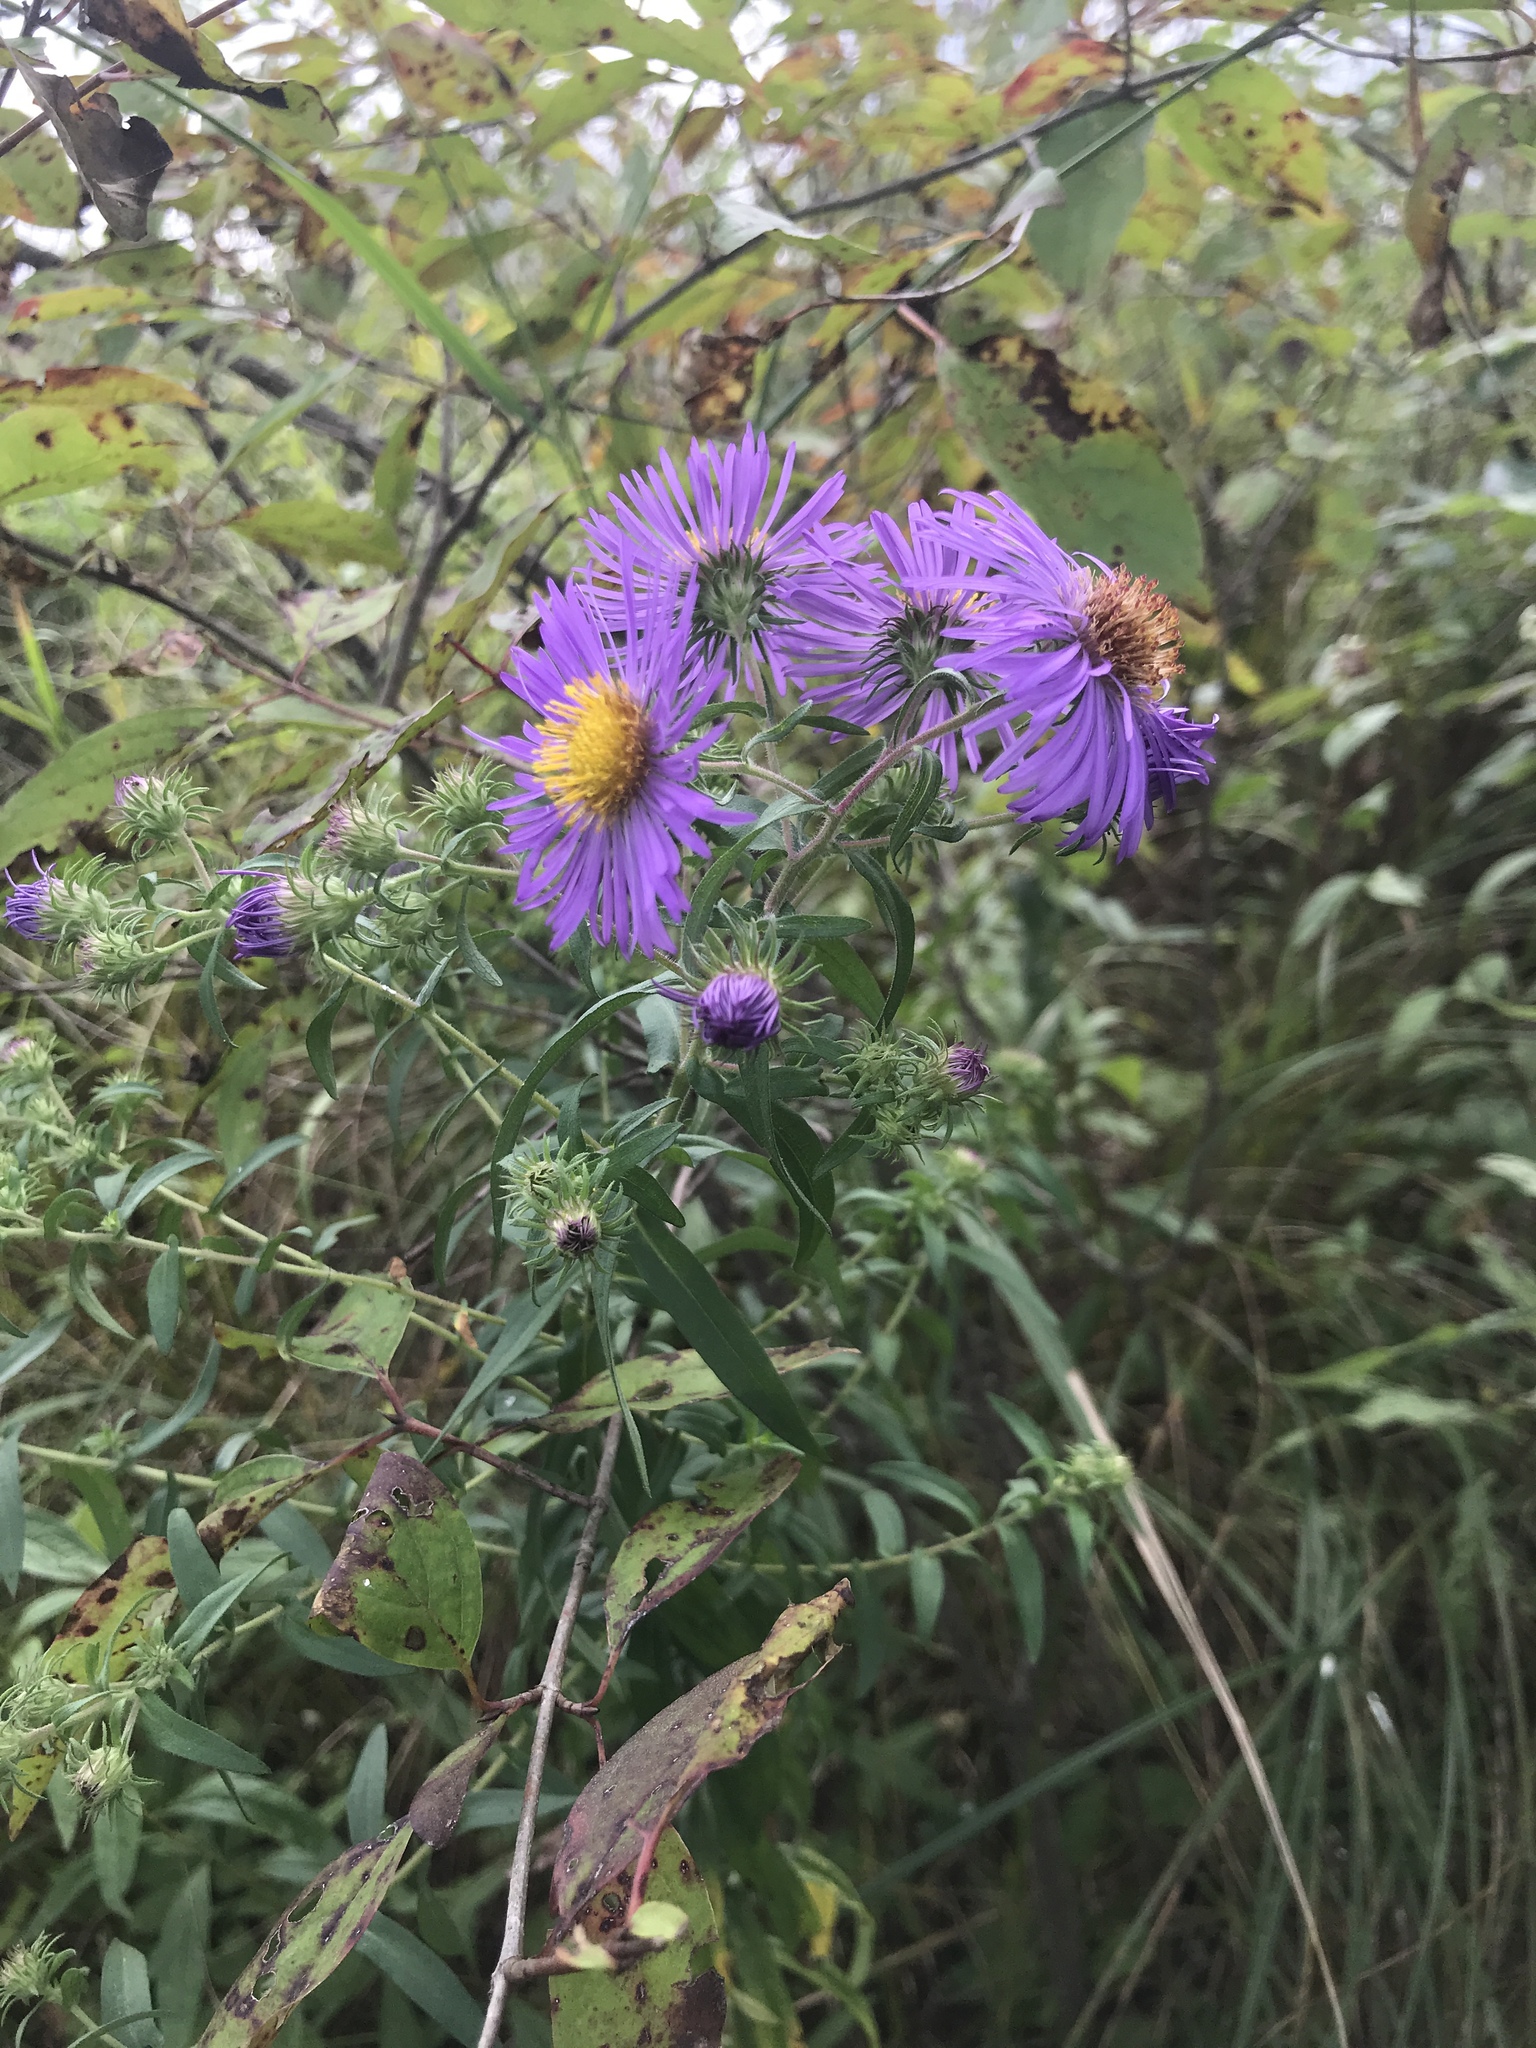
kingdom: Plantae
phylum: Tracheophyta
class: Magnoliopsida
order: Asterales
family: Asteraceae
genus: Symphyotrichum
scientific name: Symphyotrichum novae-angliae
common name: Michaelmas daisy
